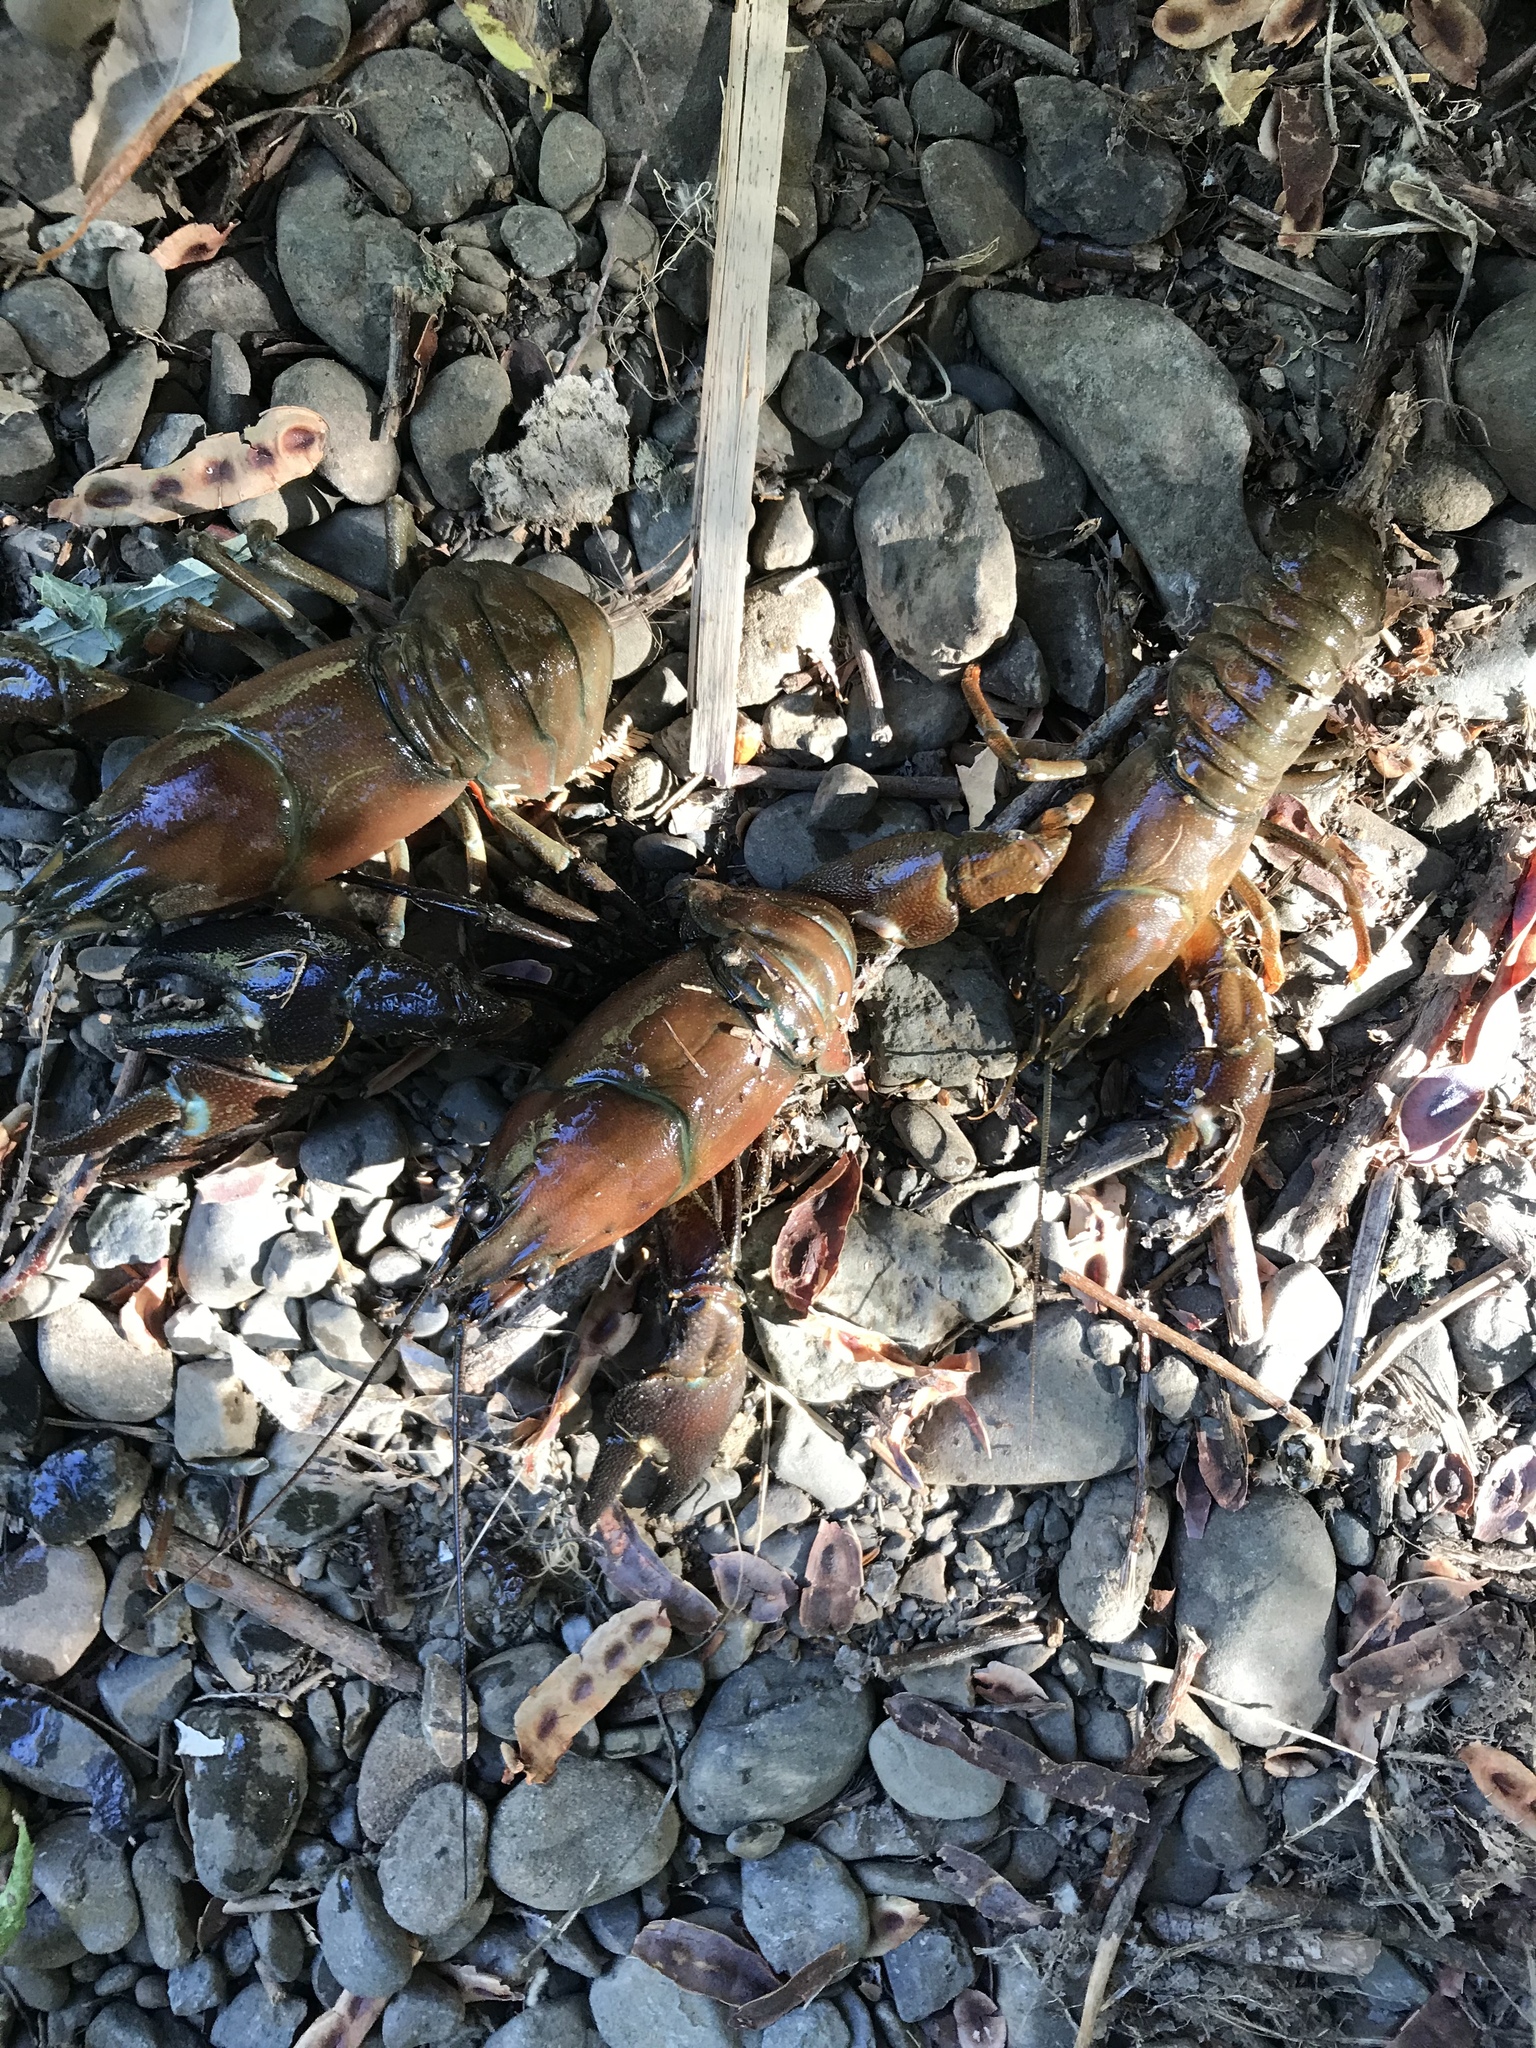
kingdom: Animalia
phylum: Arthropoda
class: Malacostraca
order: Decapoda
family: Astacidae
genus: Pacifastacus
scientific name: Pacifastacus leniusculus
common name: Signal crayfish
